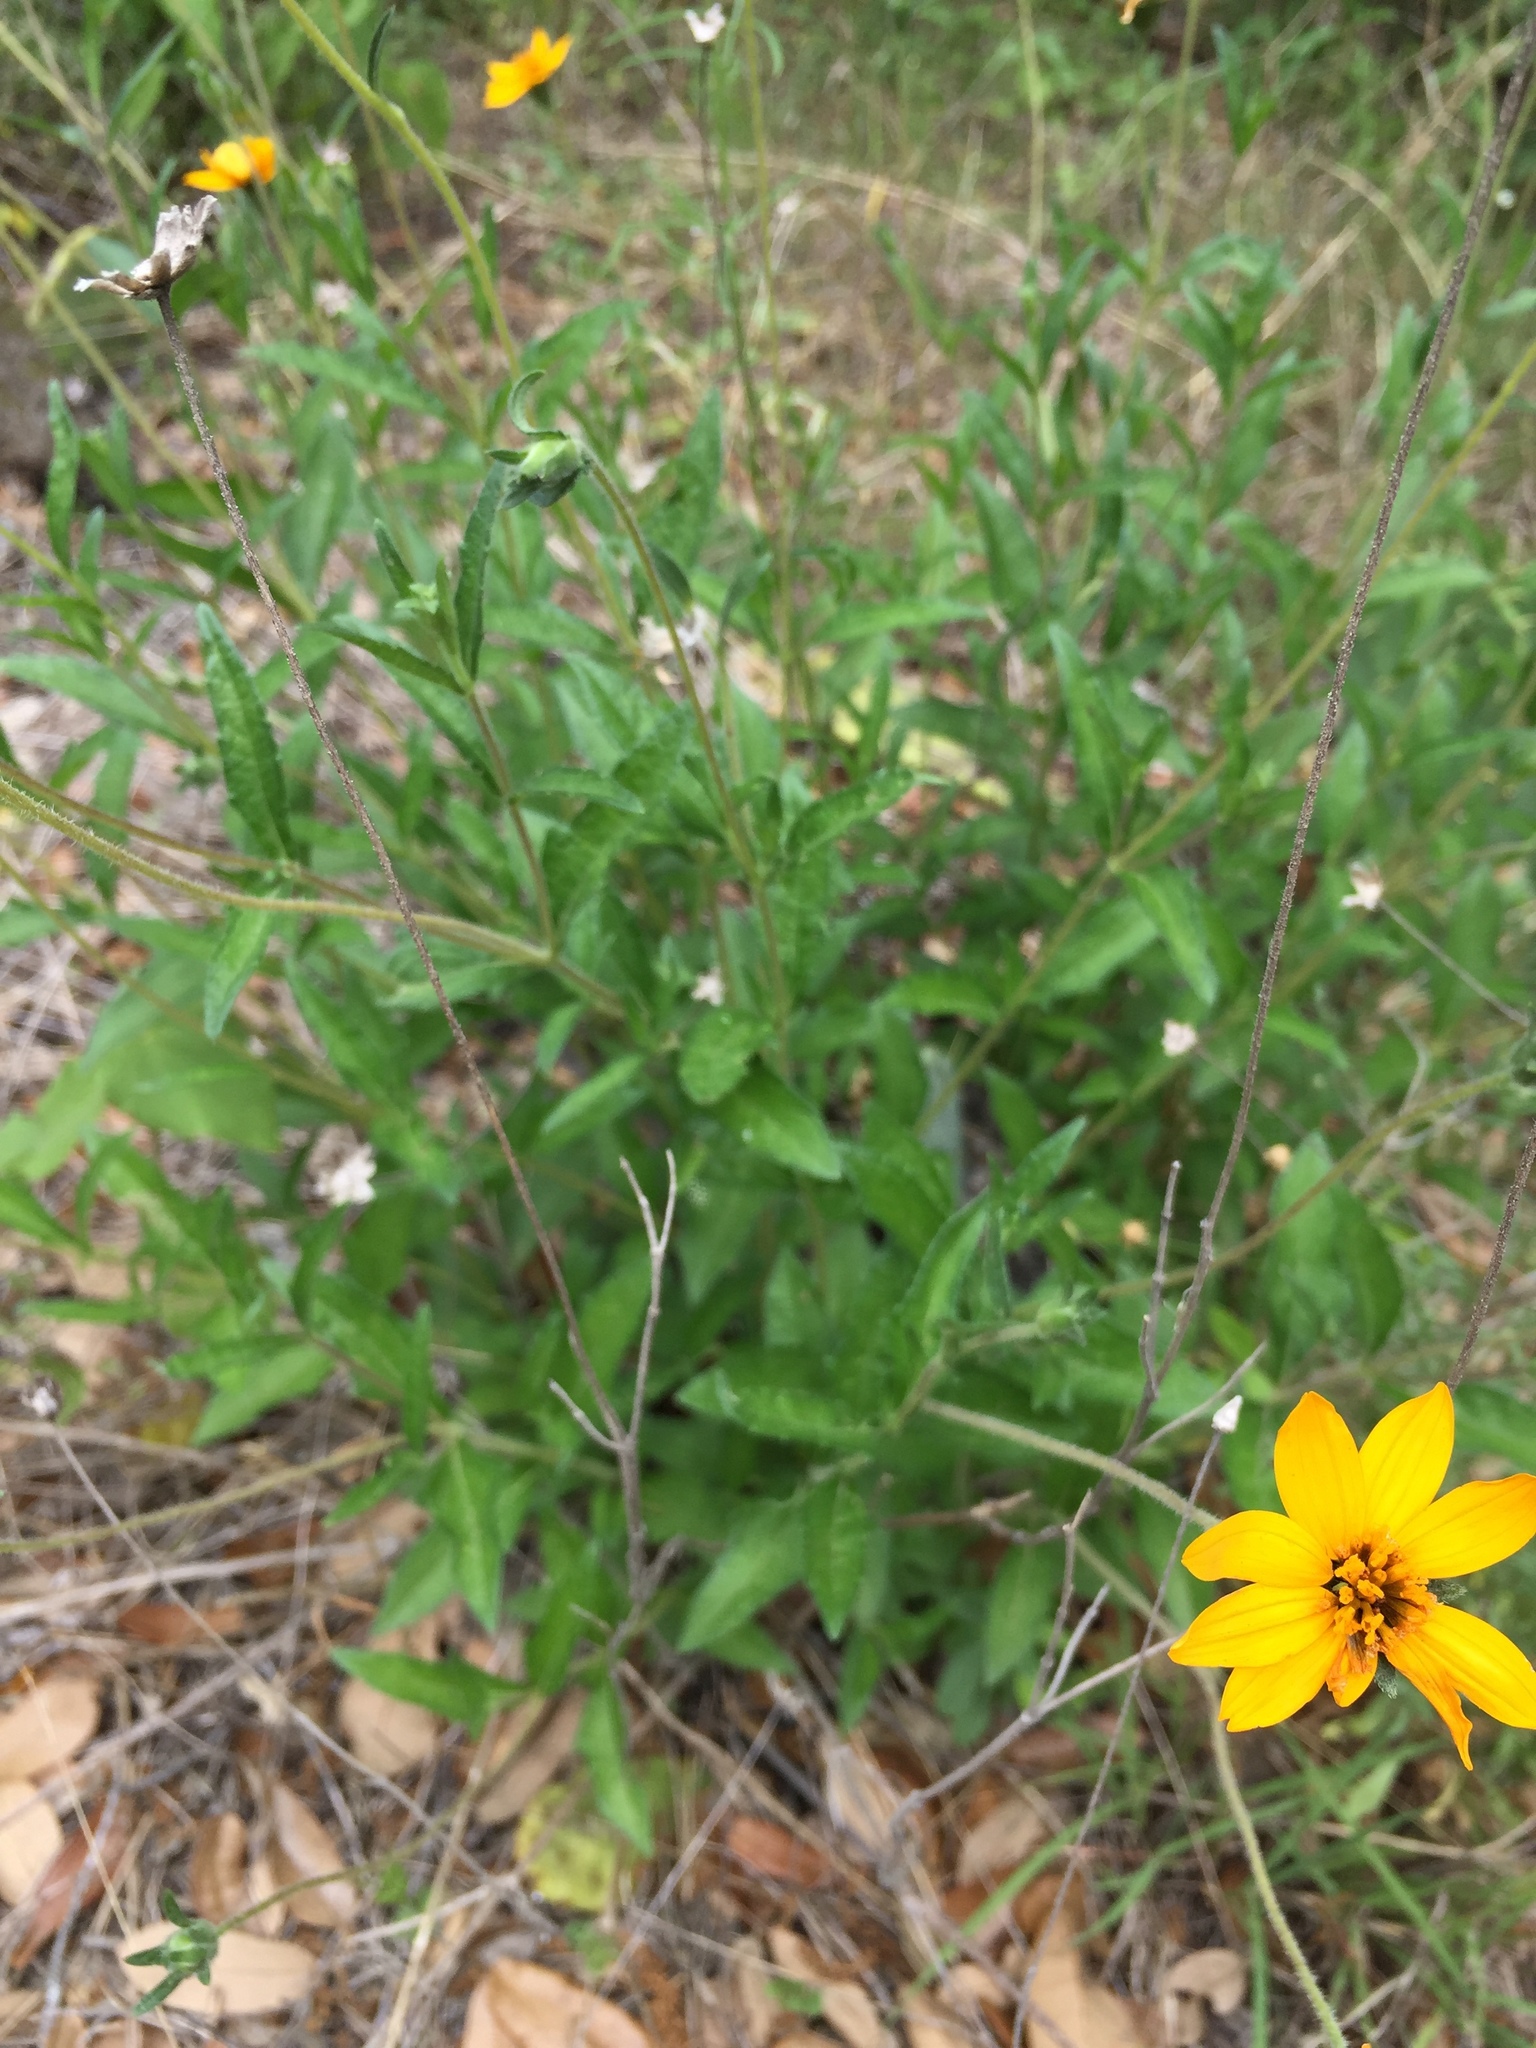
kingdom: Plantae
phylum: Tracheophyta
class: Magnoliopsida
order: Asterales
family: Asteraceae
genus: Wedelia
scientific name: Wedelia acapulcensis
